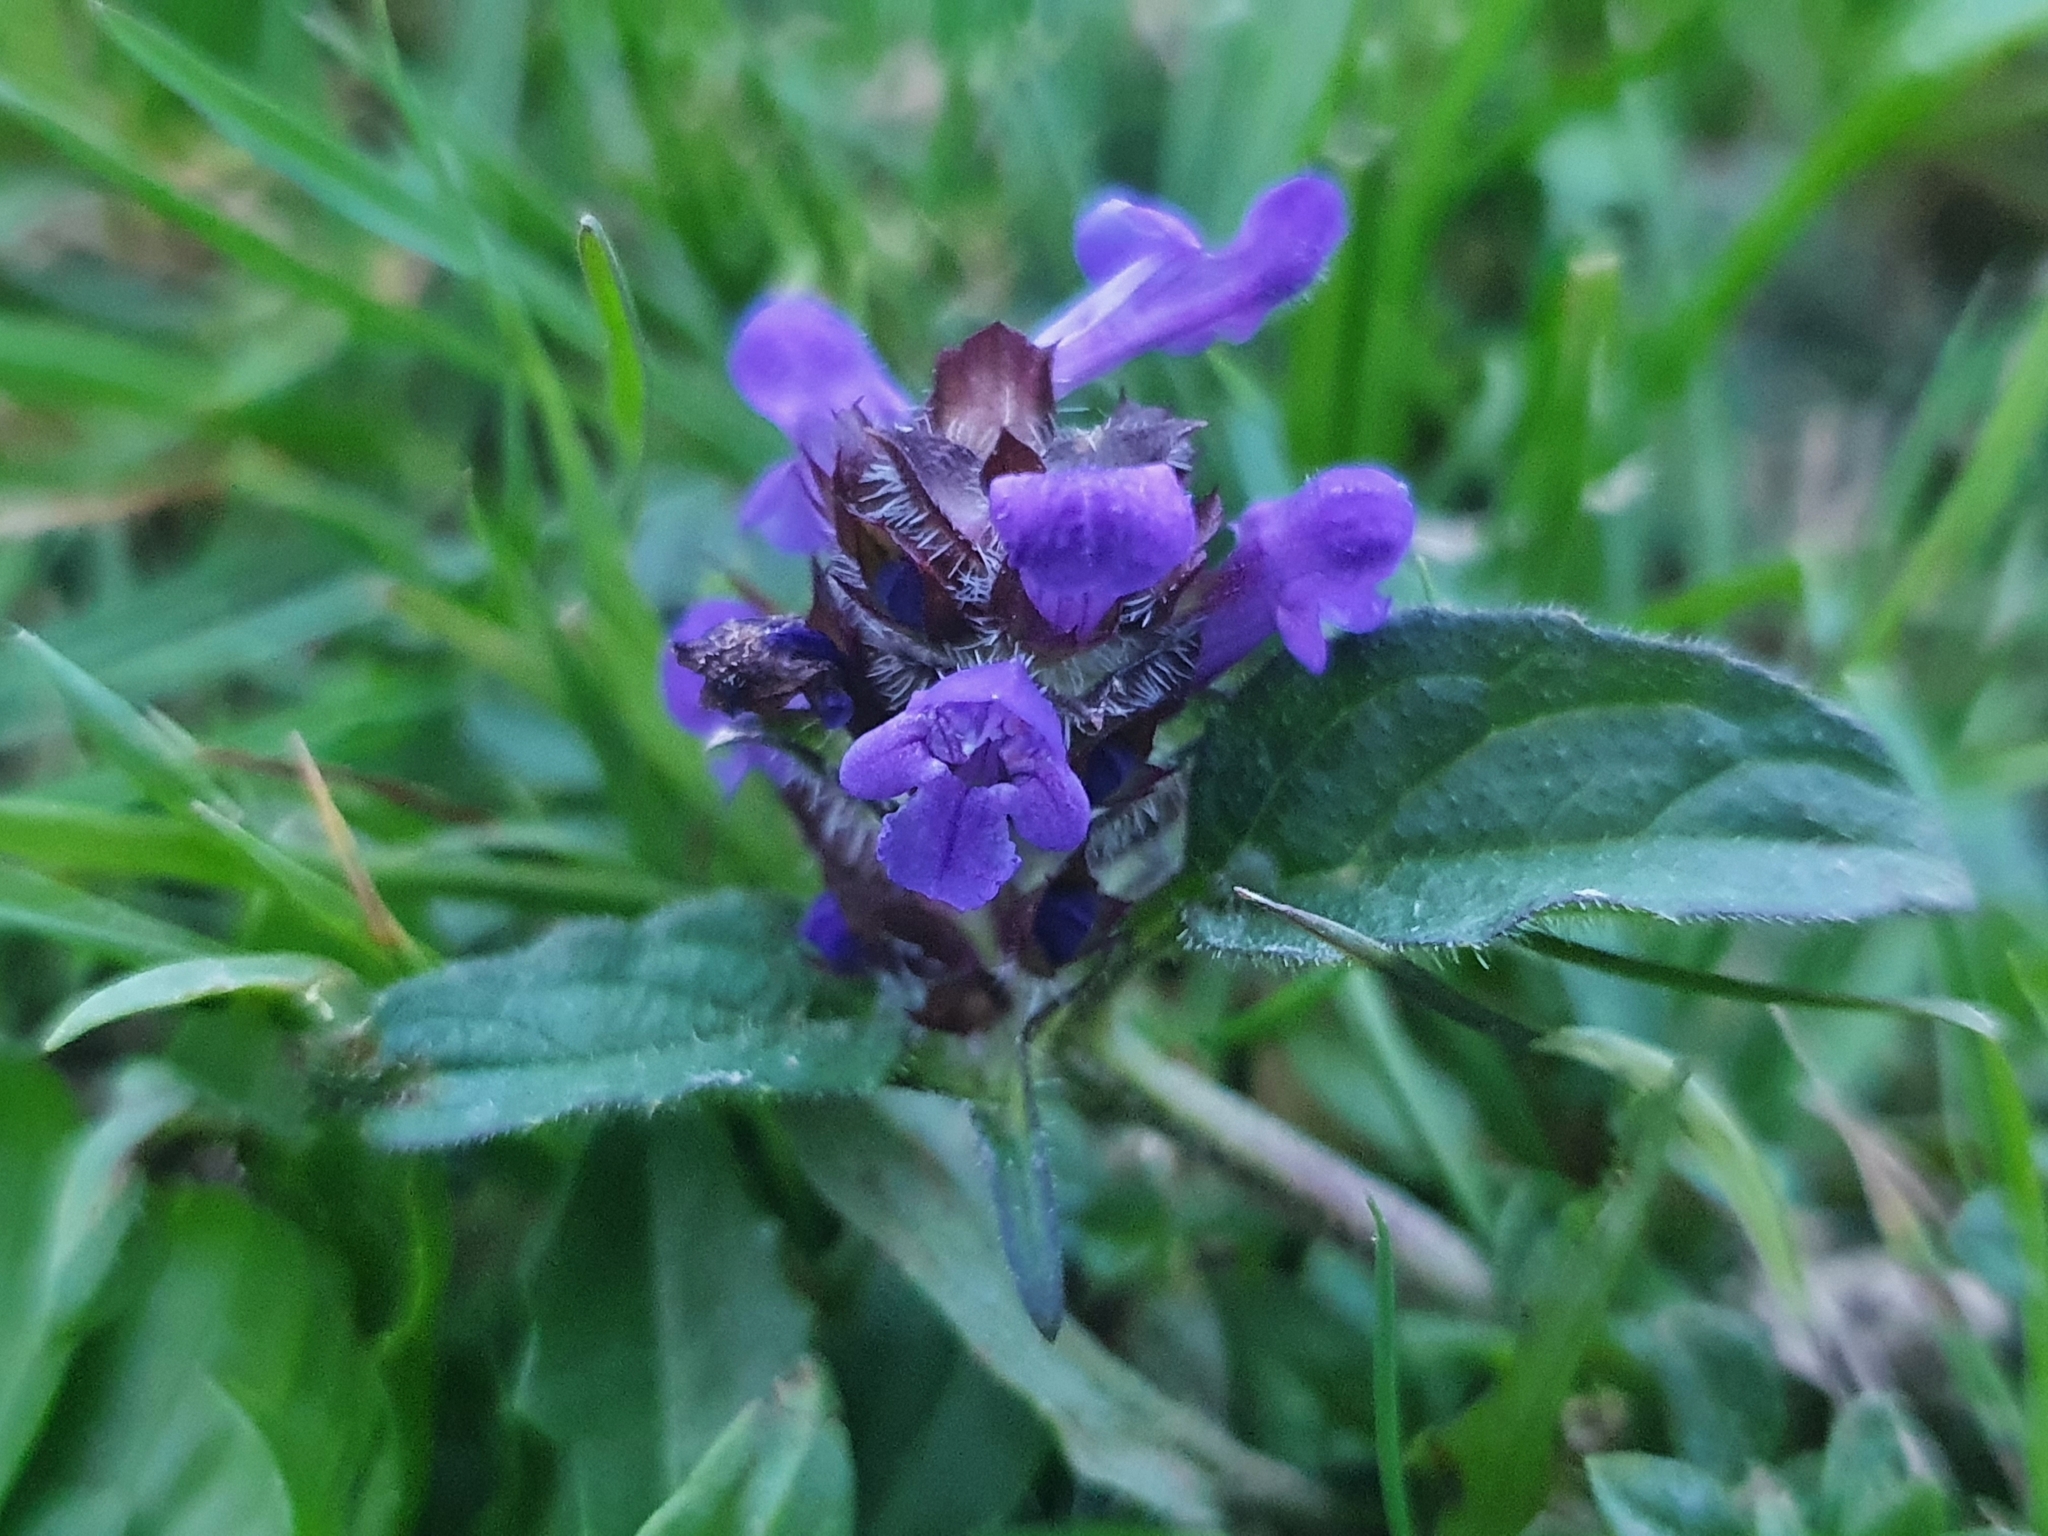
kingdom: Plantae
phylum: Tracheophyta
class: Magnoliopsida
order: Lamiales
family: Lamiaceae
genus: Prunella
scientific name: Prunella vulgaris
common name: Heal-all
